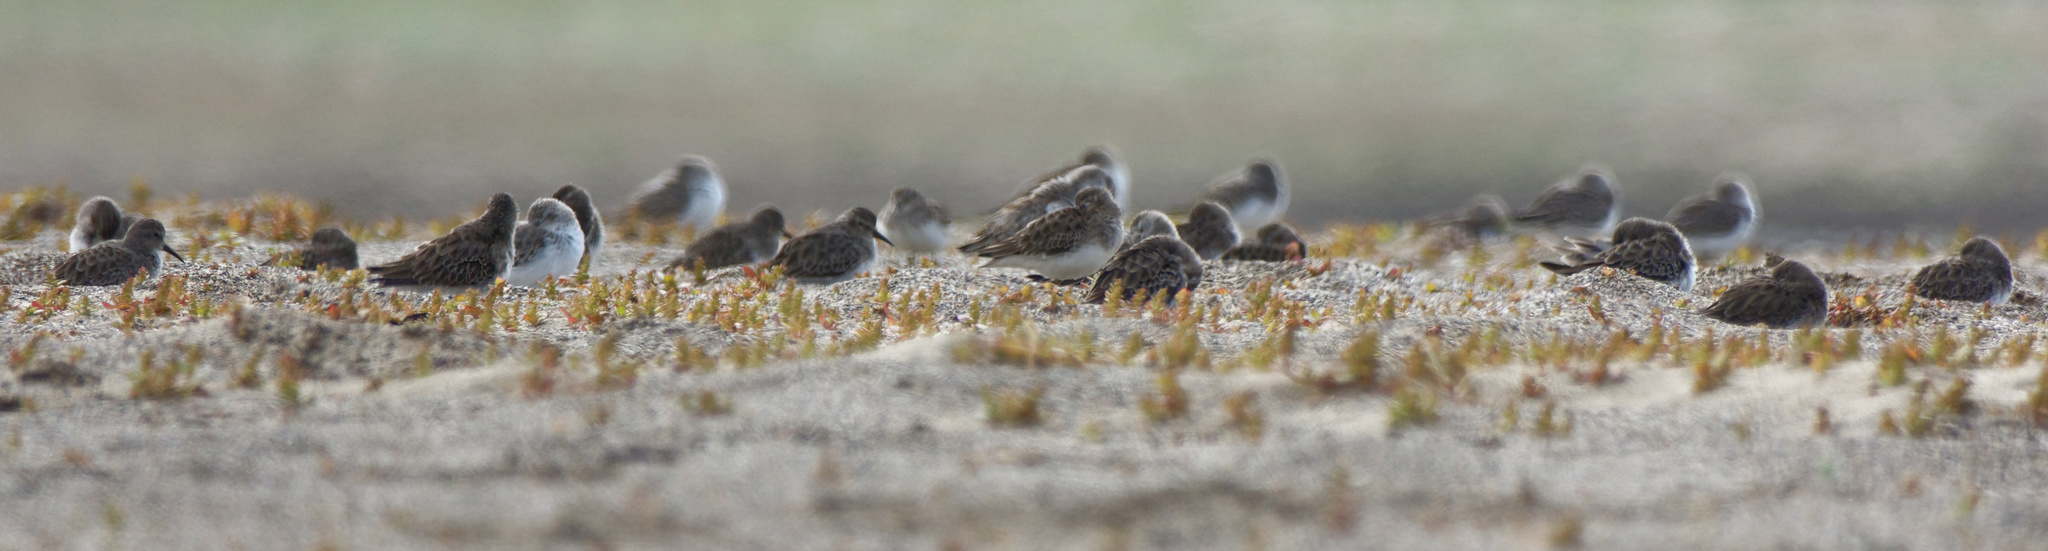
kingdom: Animalia
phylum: Chordata
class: Aves
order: Charadriiformes
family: Scolopacidae
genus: Calidris
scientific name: Calidris minutilla
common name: Least sandpiper
